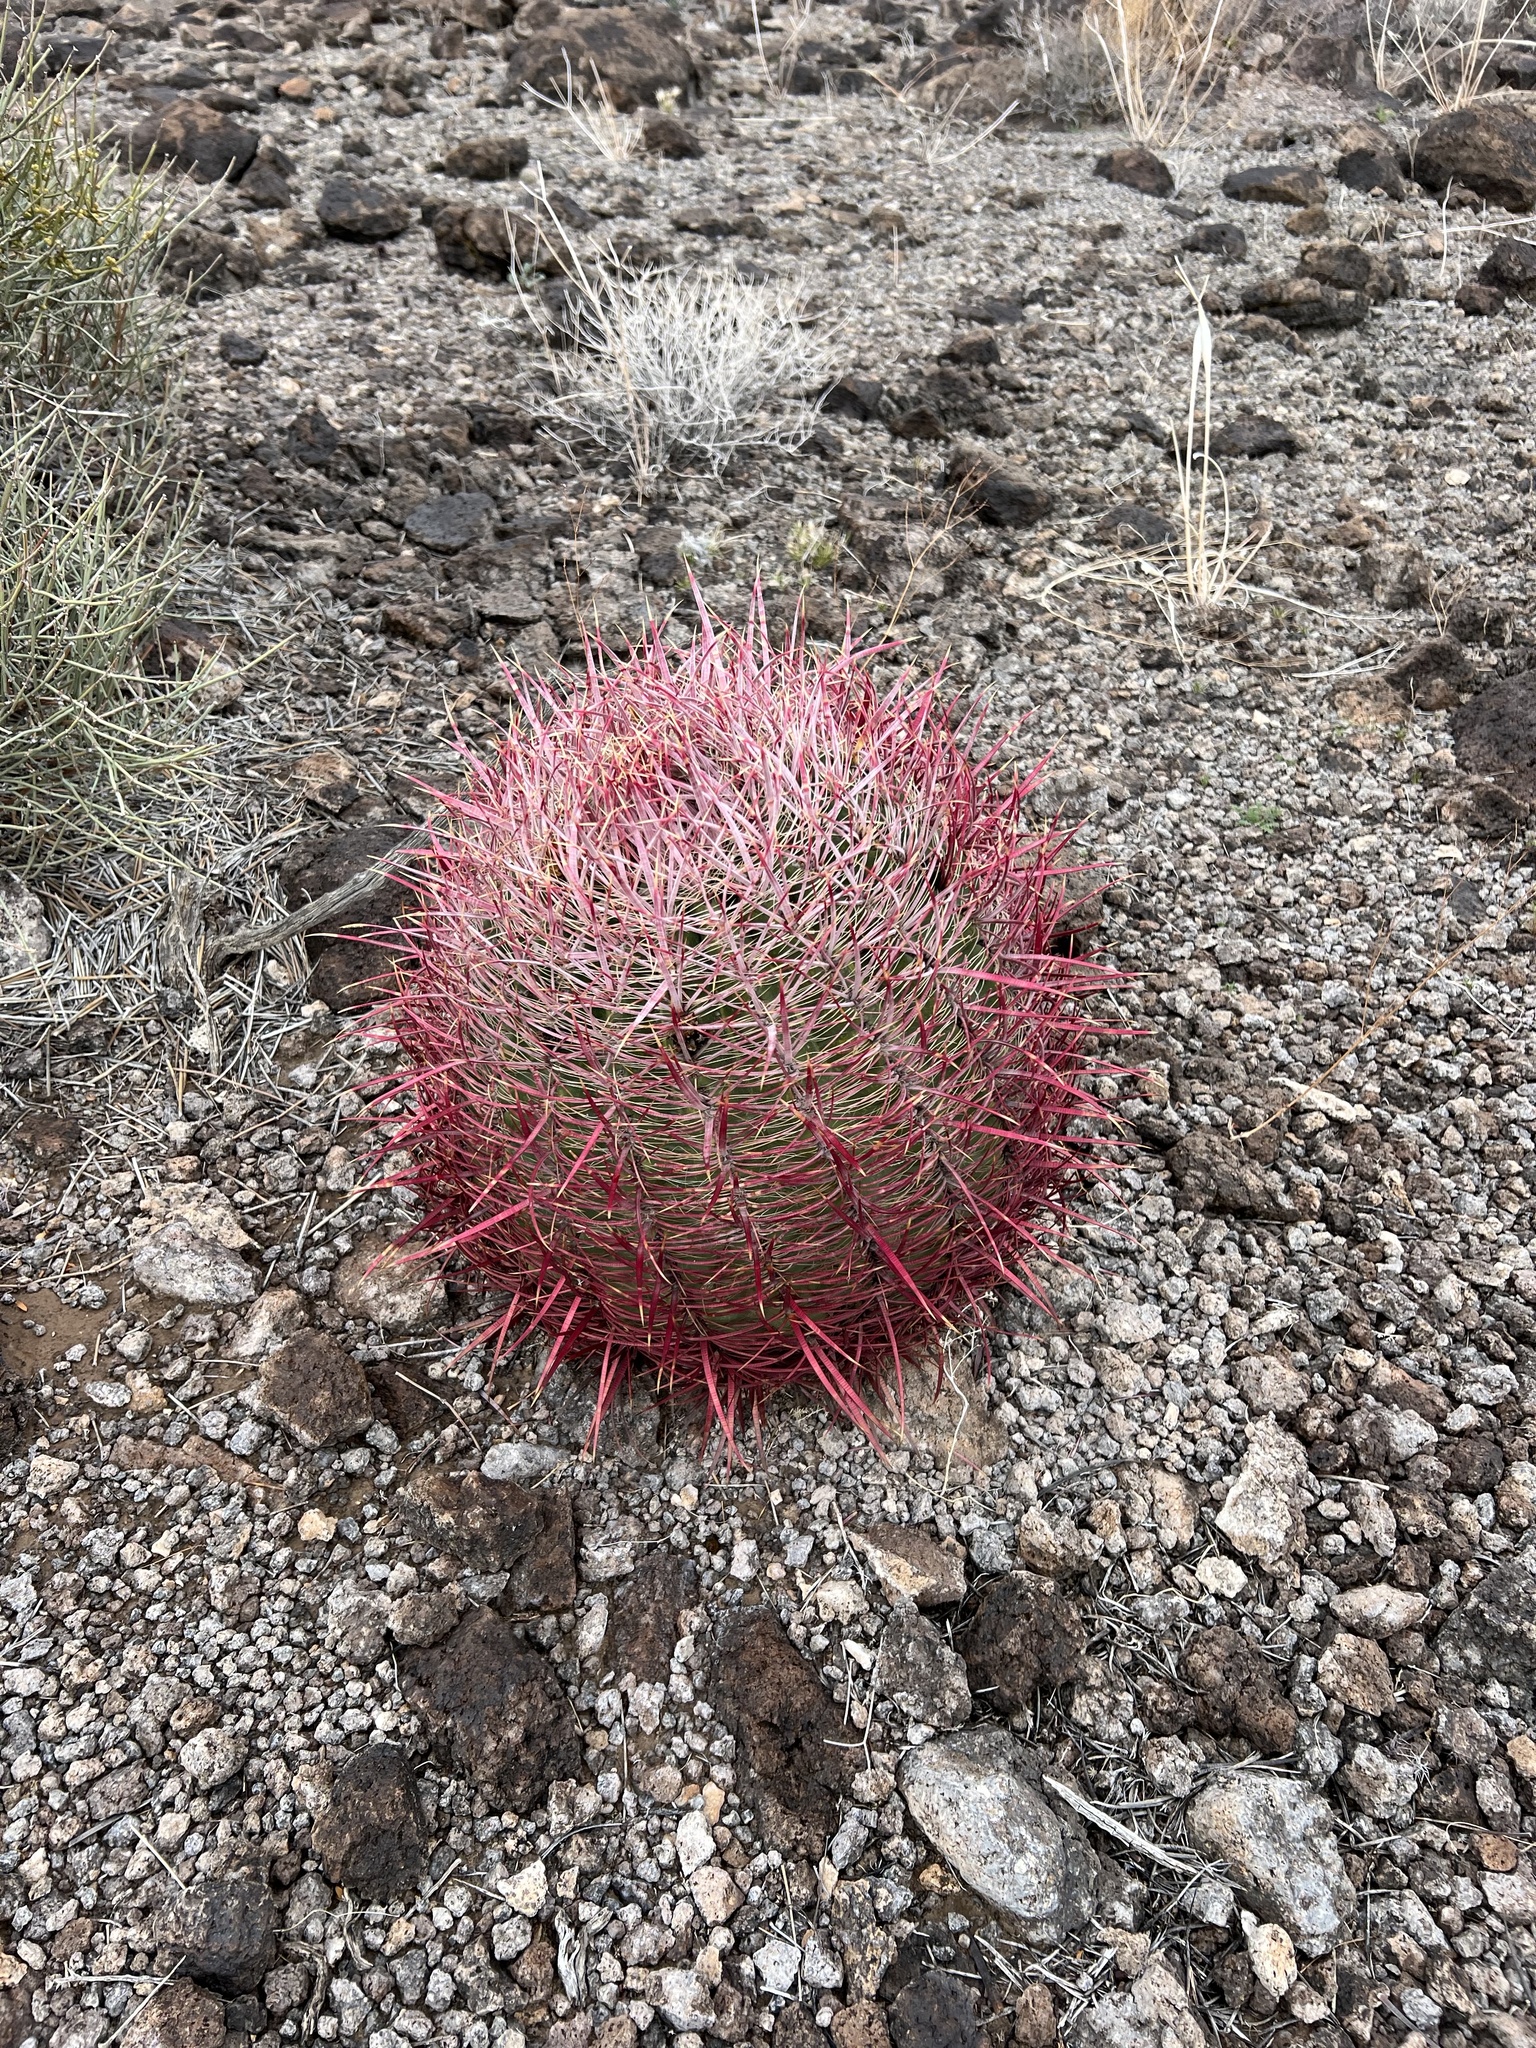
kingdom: Plantae
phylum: Tracheophyta
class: Magnoliopsida
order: Caryophyllales
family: Cactaceae
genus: Ferocactus
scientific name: Ferocactus cylindraceus
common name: California barrel cactus
